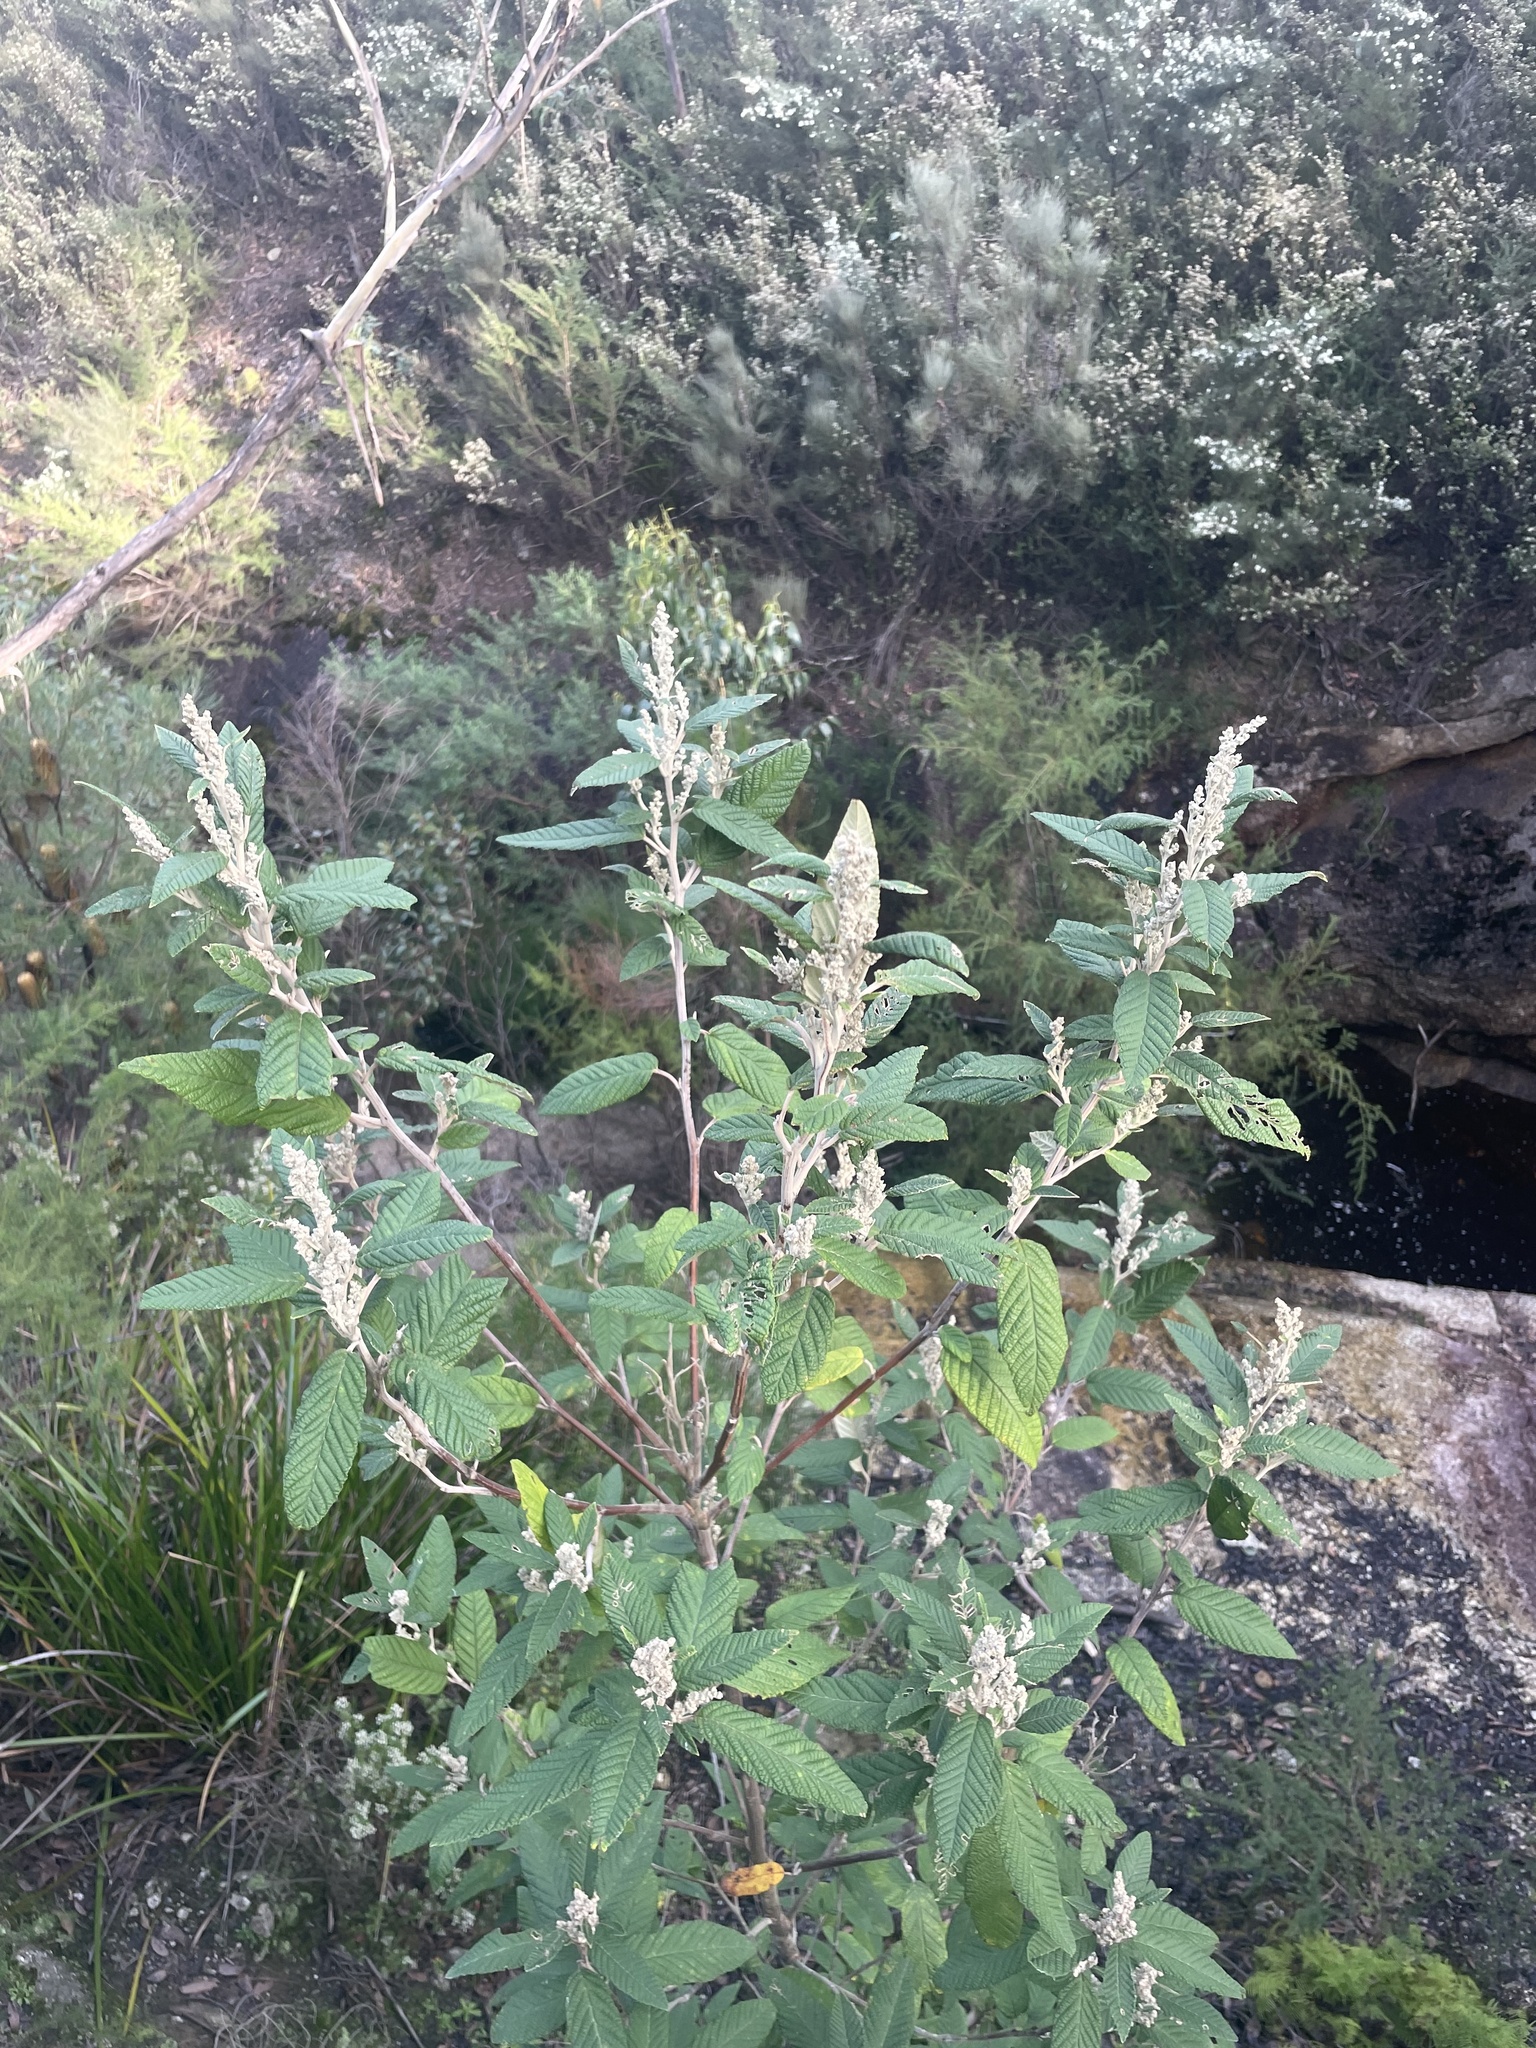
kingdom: Plantae
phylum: Tracheophyta
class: Magnoliopsida
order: Rosales
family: Rhamnaceae
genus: Pomaderris
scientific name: Pomaderris aspera
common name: Hazel pomaderris
